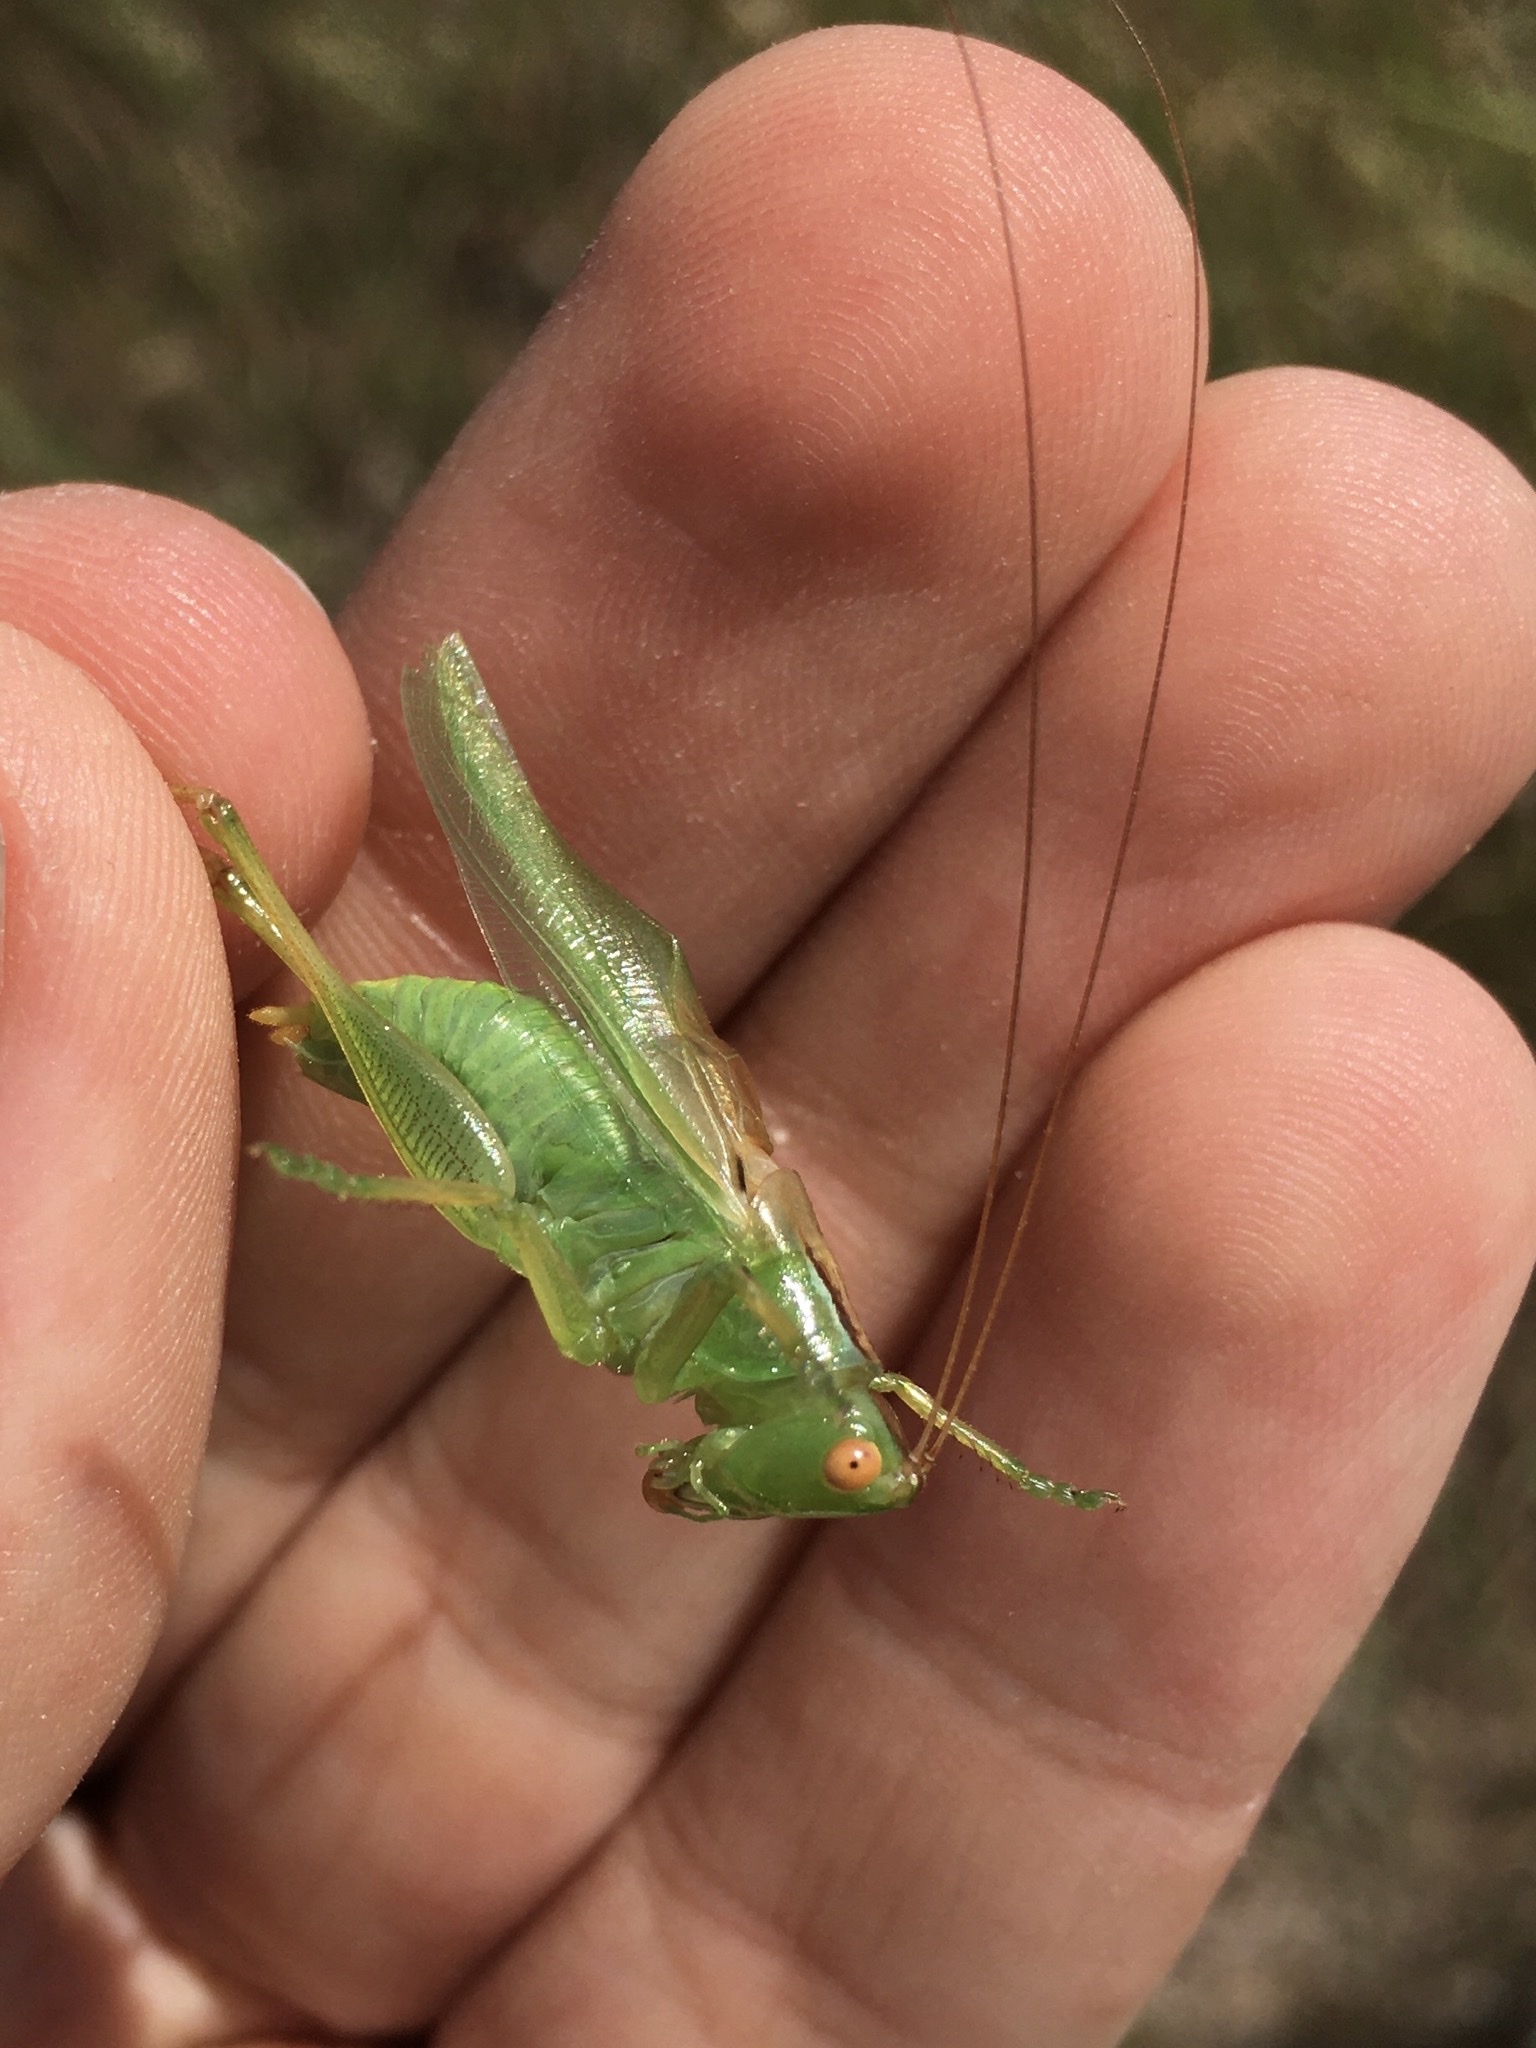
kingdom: Animalia
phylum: Arthropoda
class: Insecta
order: Orthoptera
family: Tettigoniidae
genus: Orchelimum
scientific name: Orchelimum vulgare
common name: Common meadow katydid
